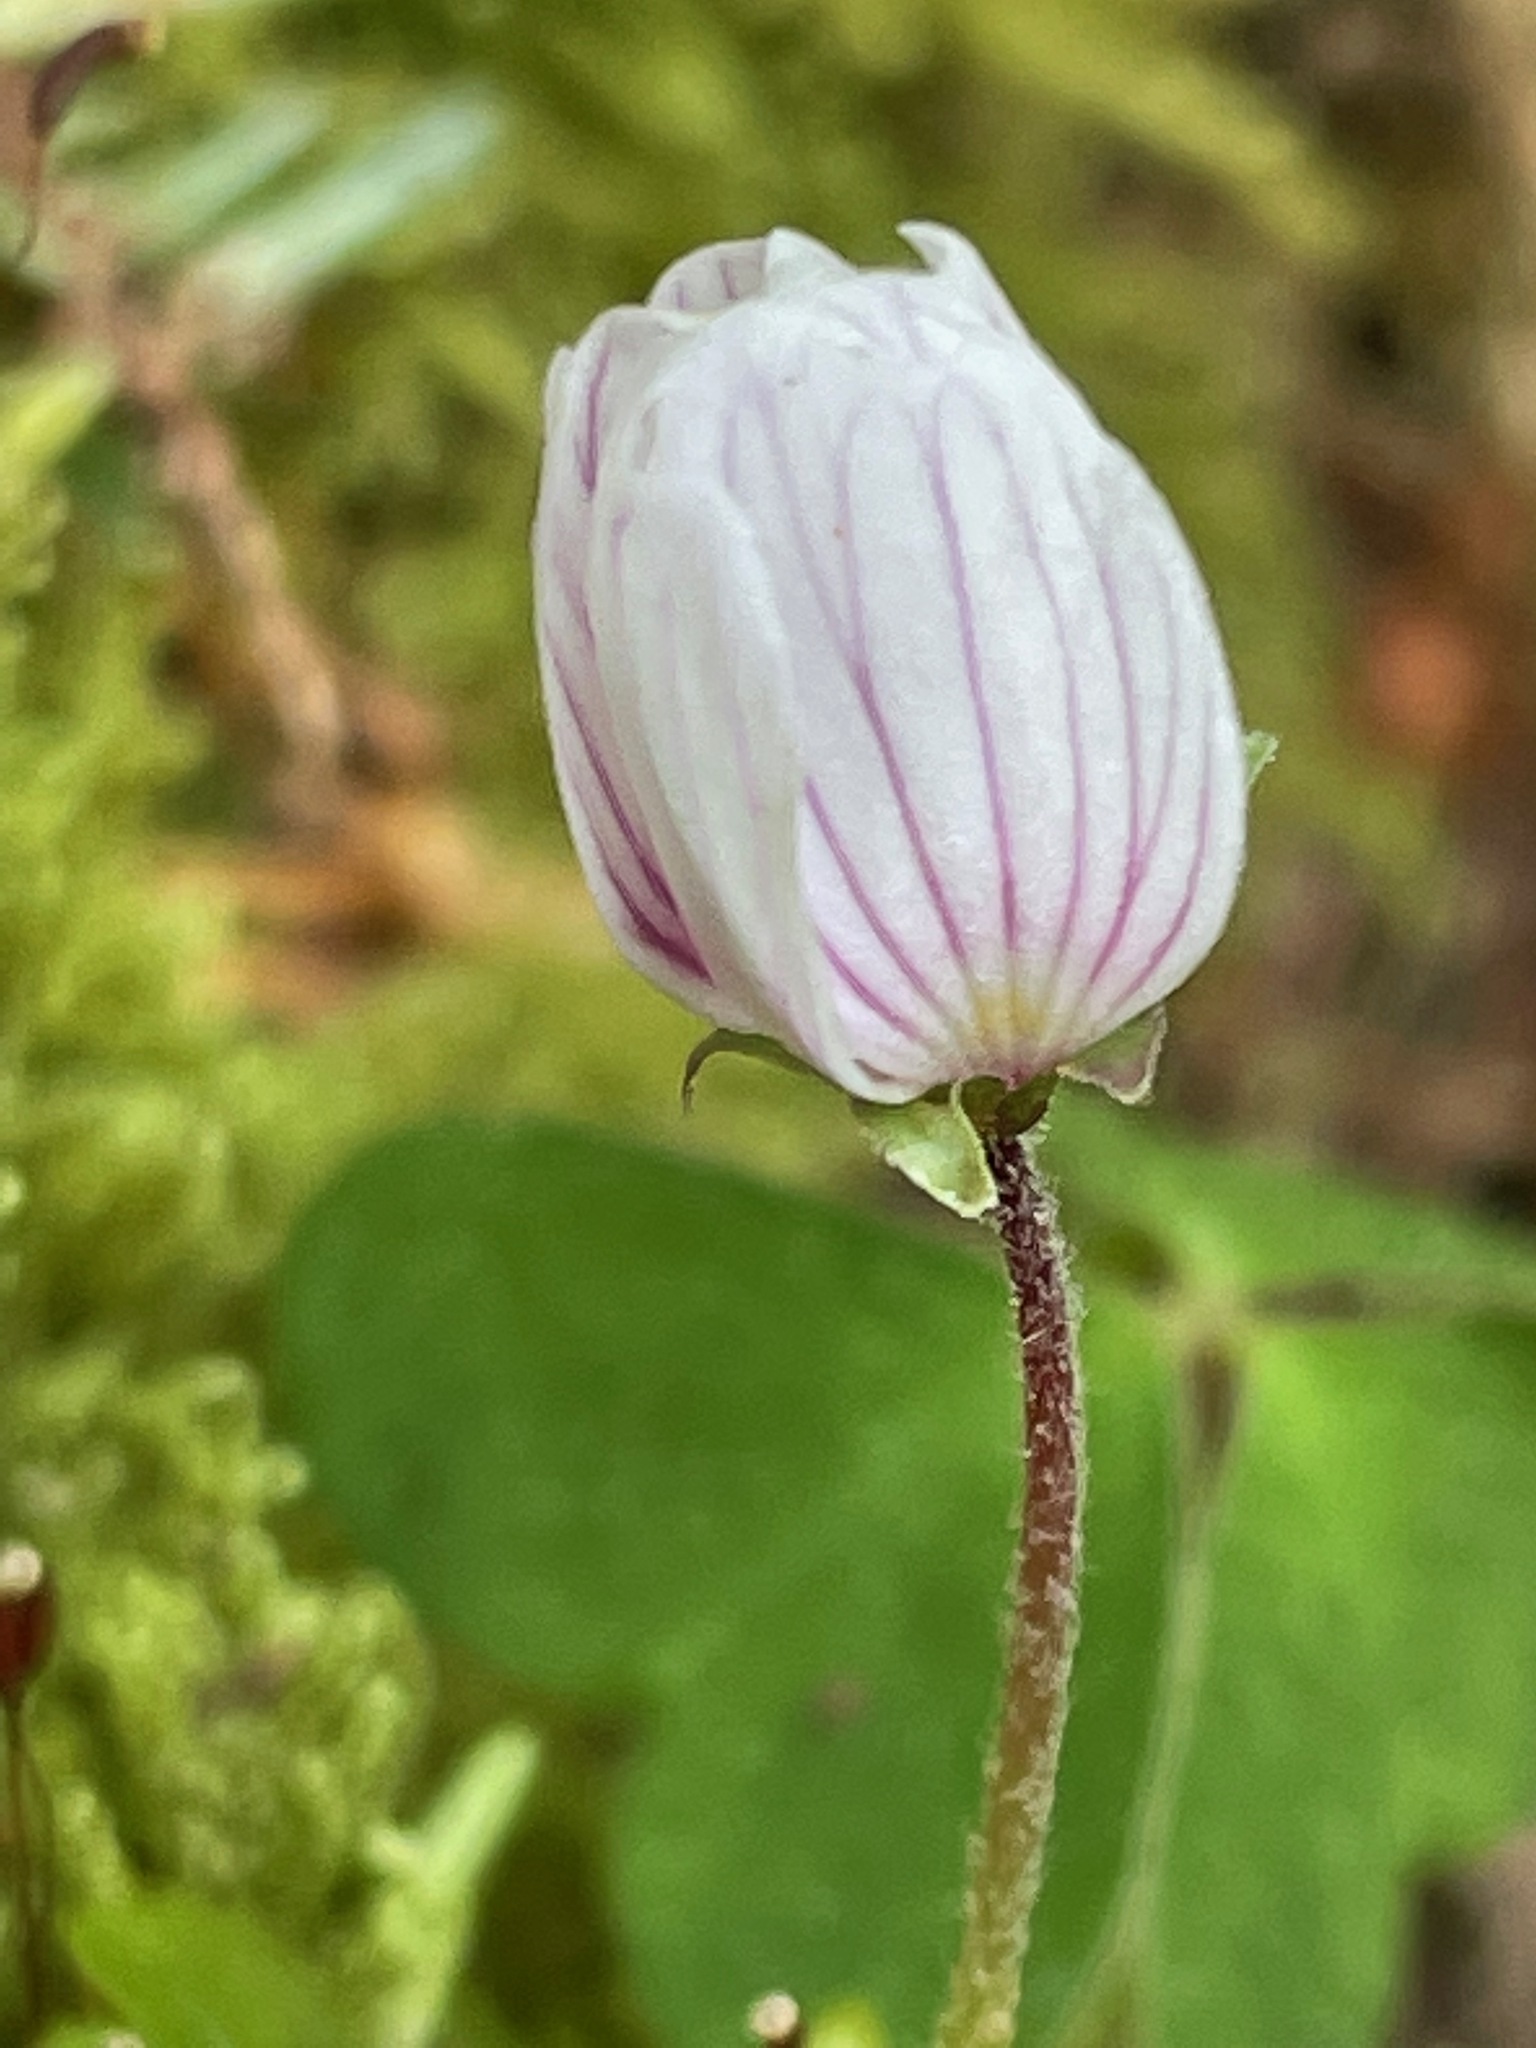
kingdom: Plantae
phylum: Tracheophyta
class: Magnoliopsida
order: Oxalidales
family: Oxalidaceae
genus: Oxalis
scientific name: Oxalis montana
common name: American wood-sorrel
